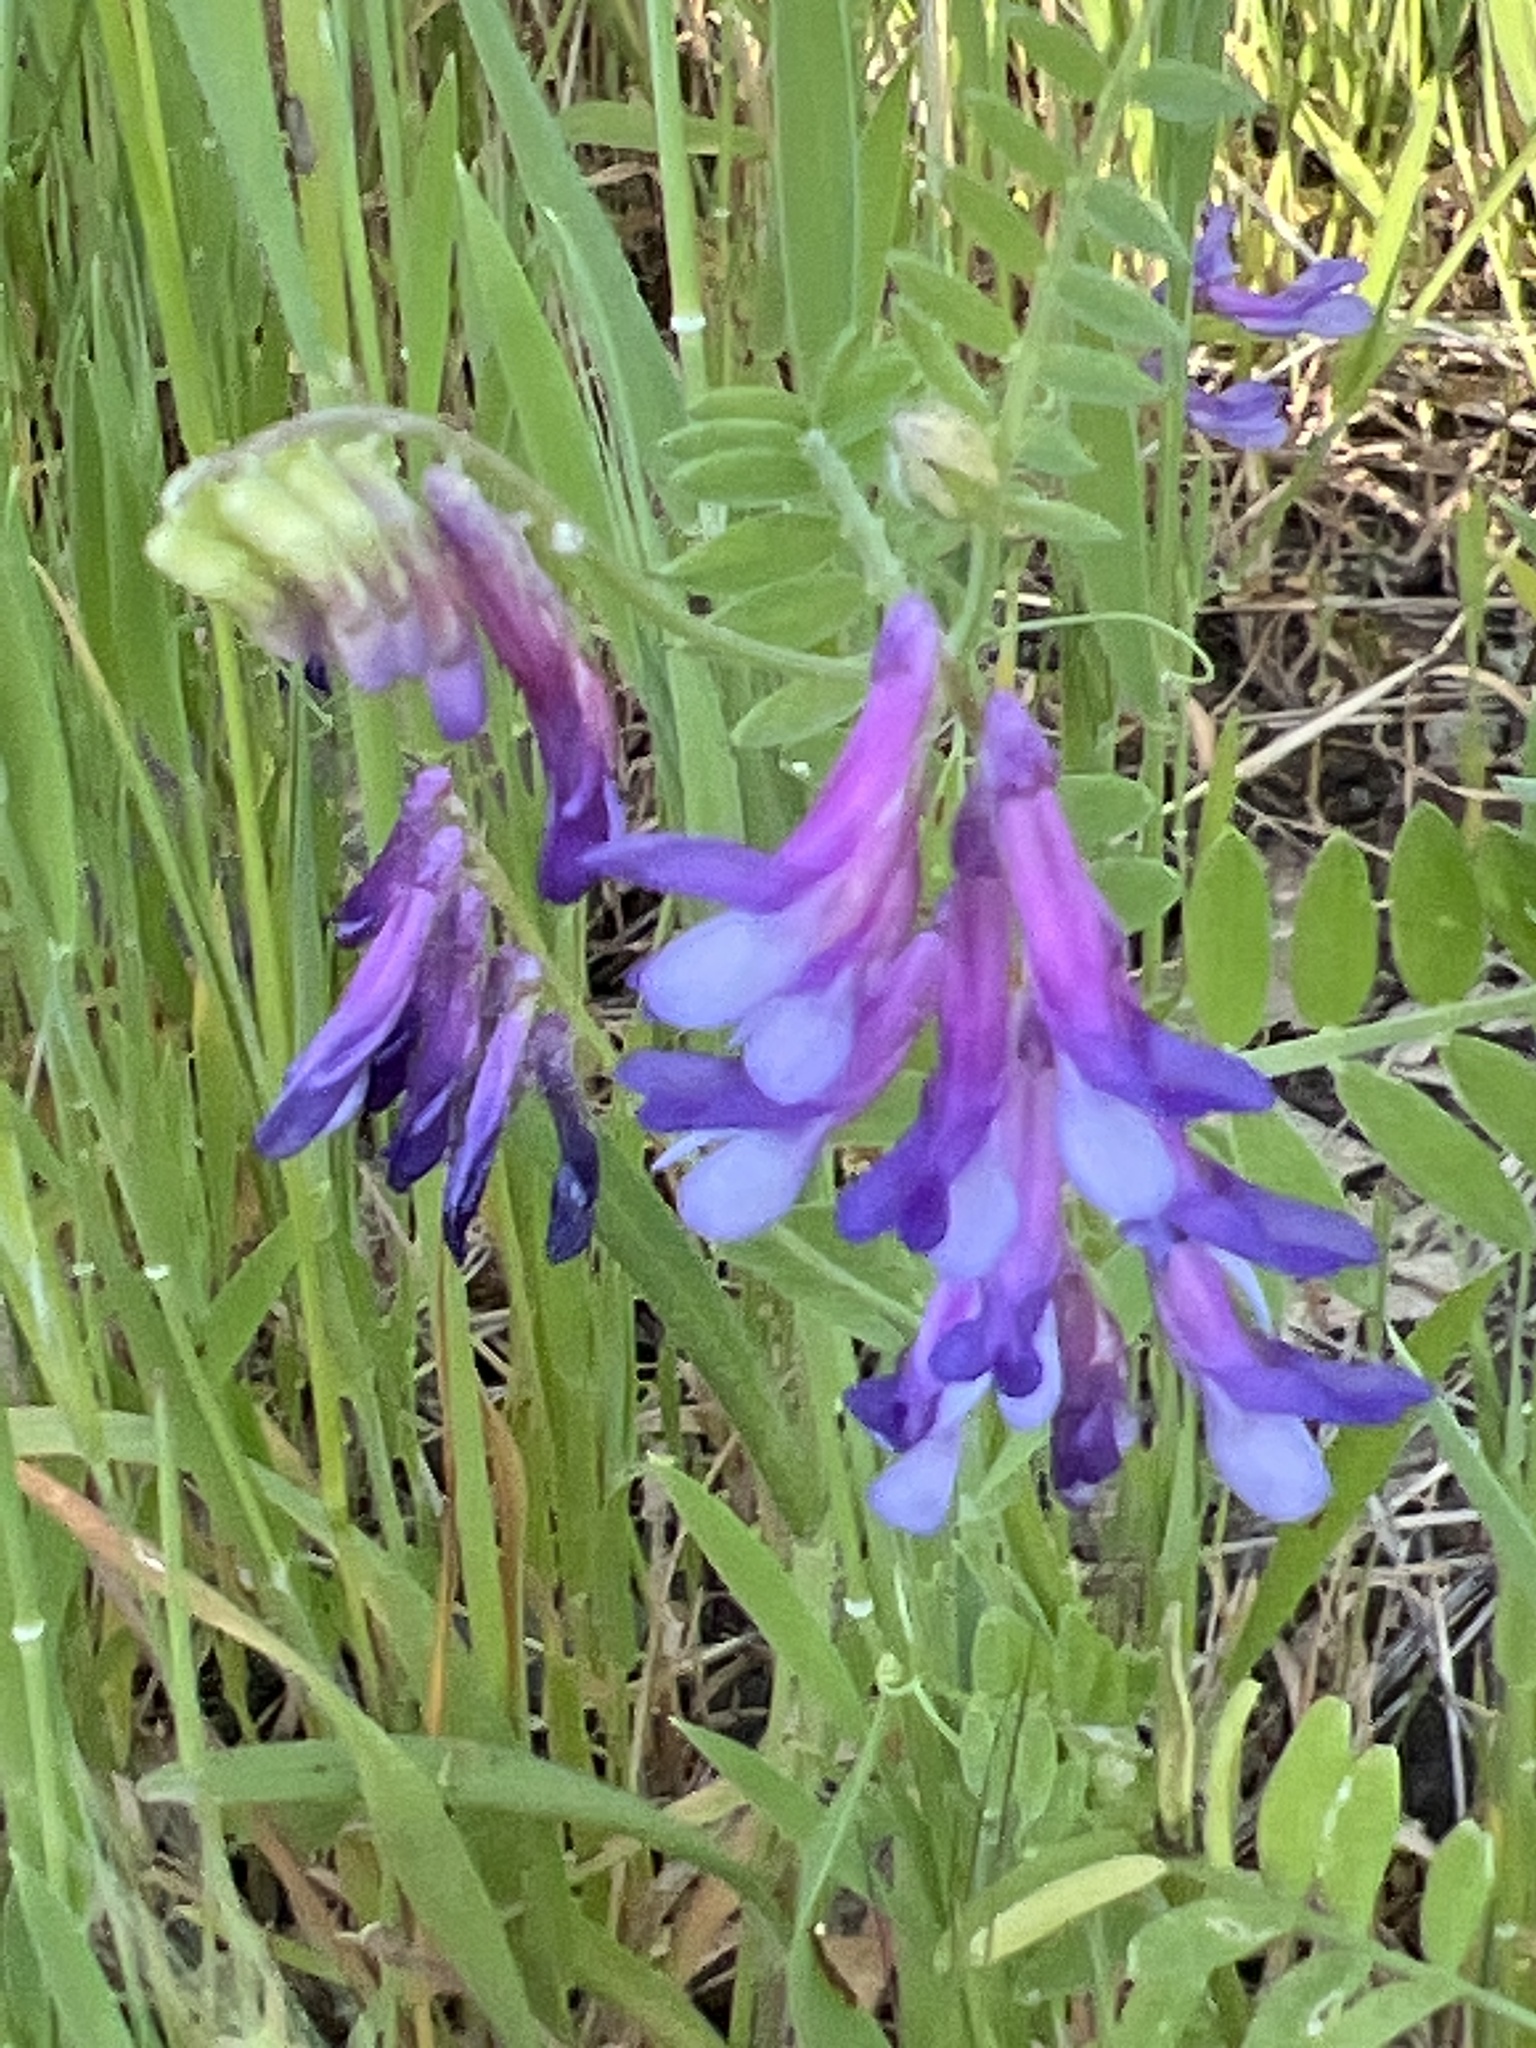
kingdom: Plantae
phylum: Tracheophyta
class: Magnoliopsida
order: Fabales
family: Fabaceae
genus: Vicia
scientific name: Vicia villosa
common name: Fodder vetch
